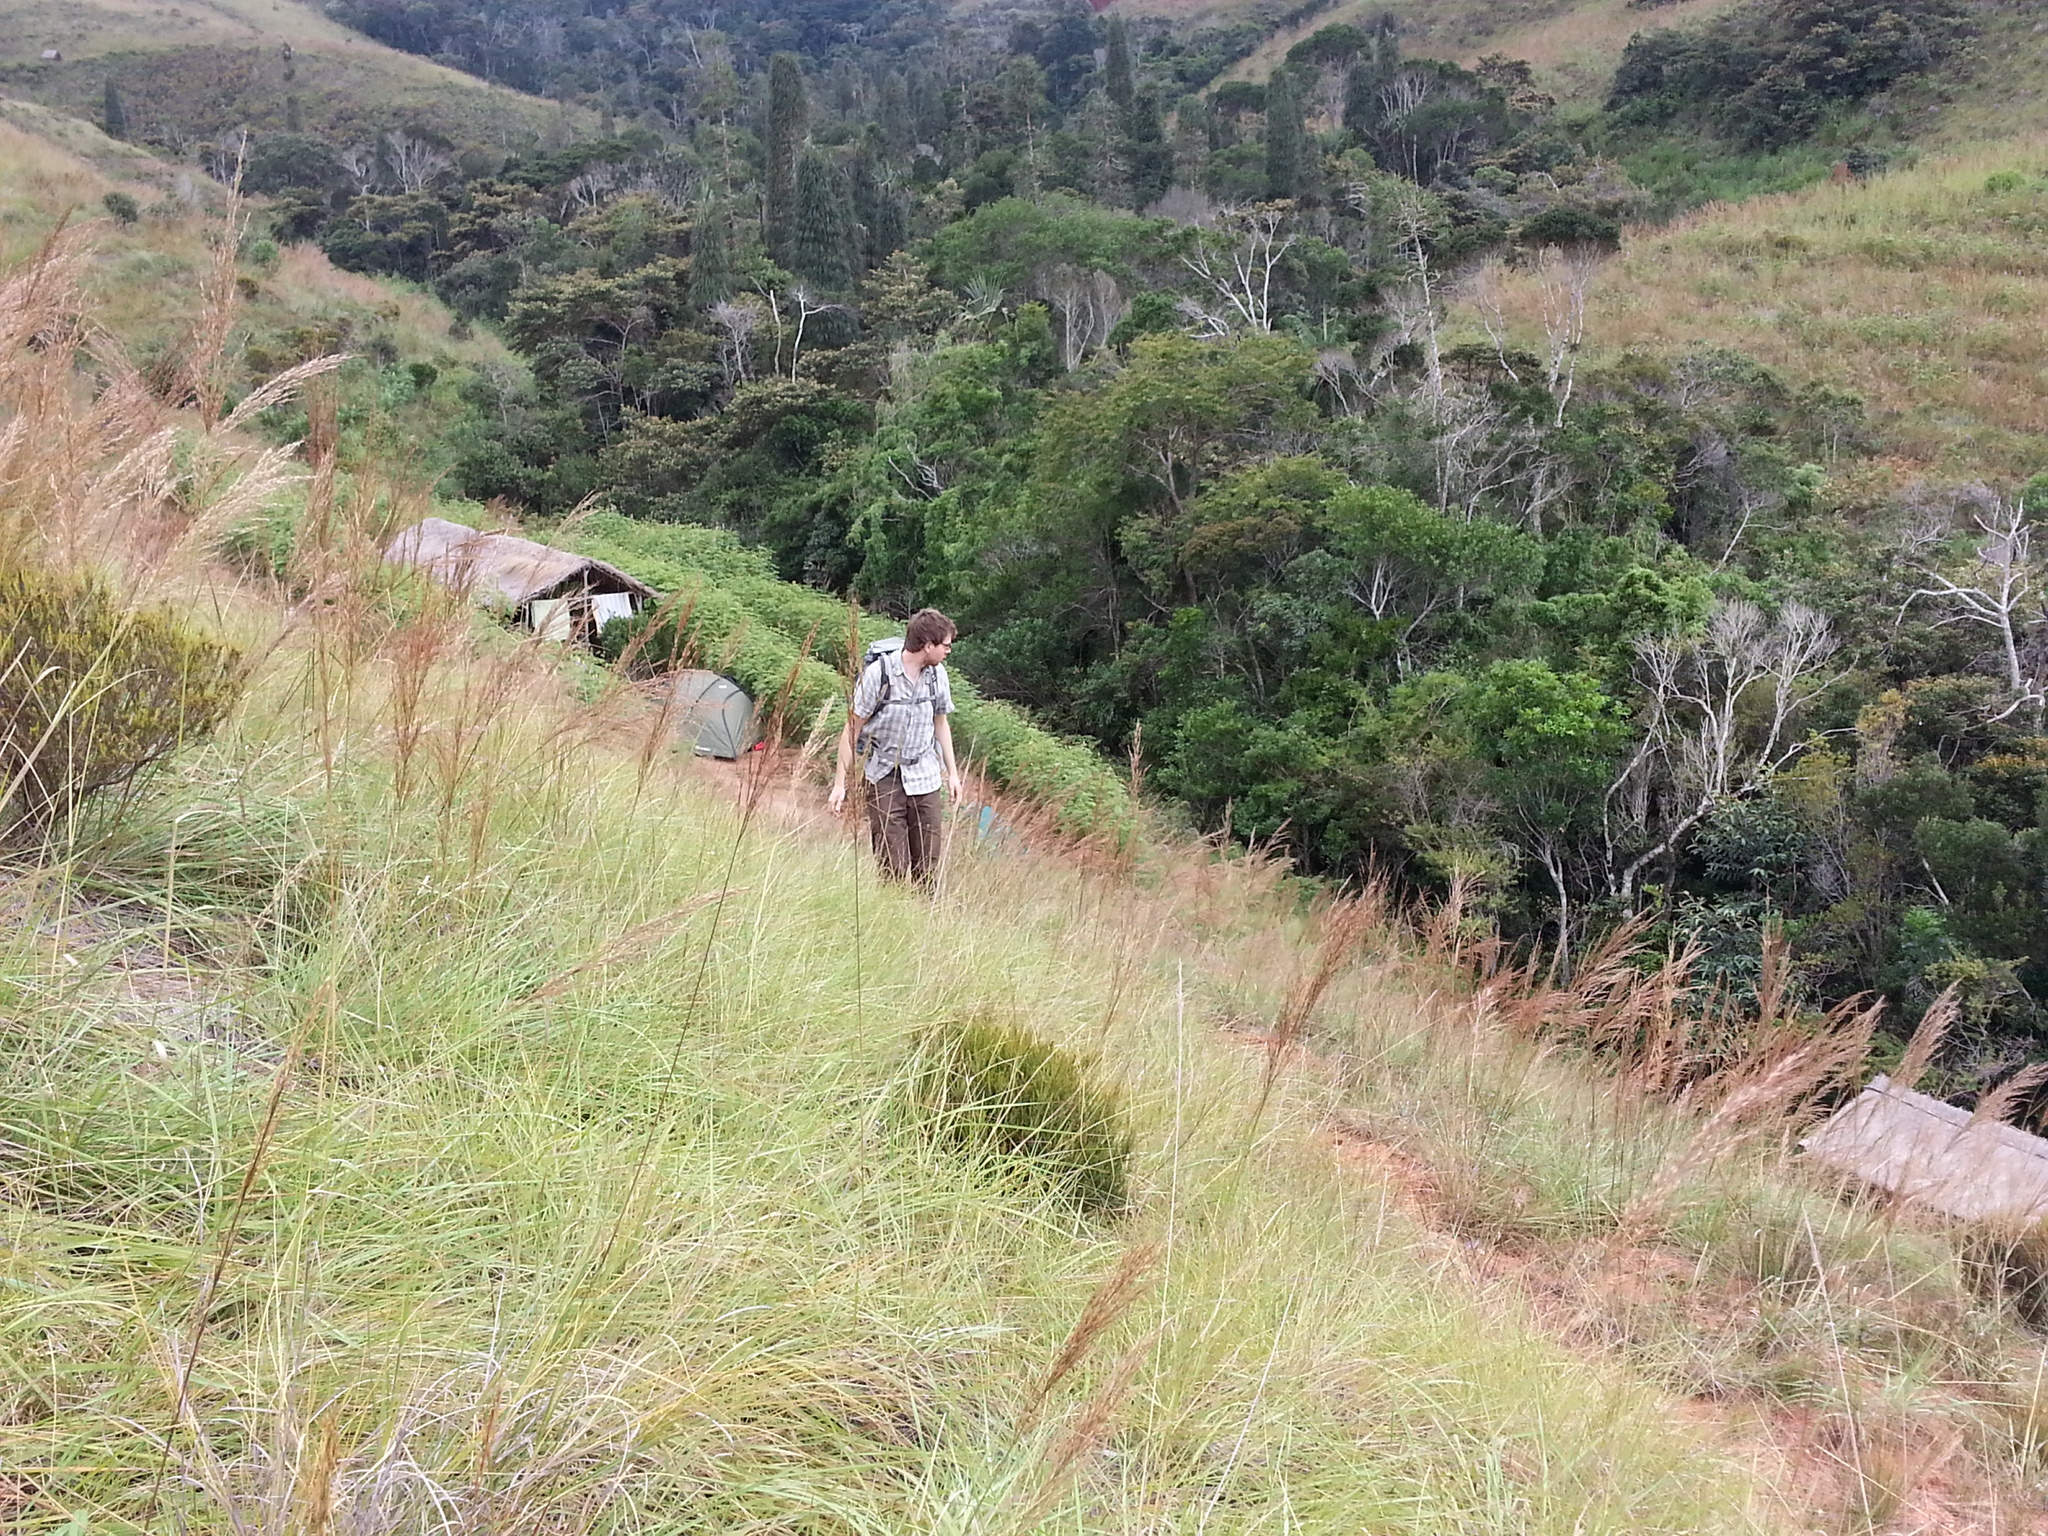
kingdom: Plantae
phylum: Tracheophyta
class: Liliopsida
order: Poales
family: Poaceae
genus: Loudetia
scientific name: Loudetia simplex
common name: Common russet grass
